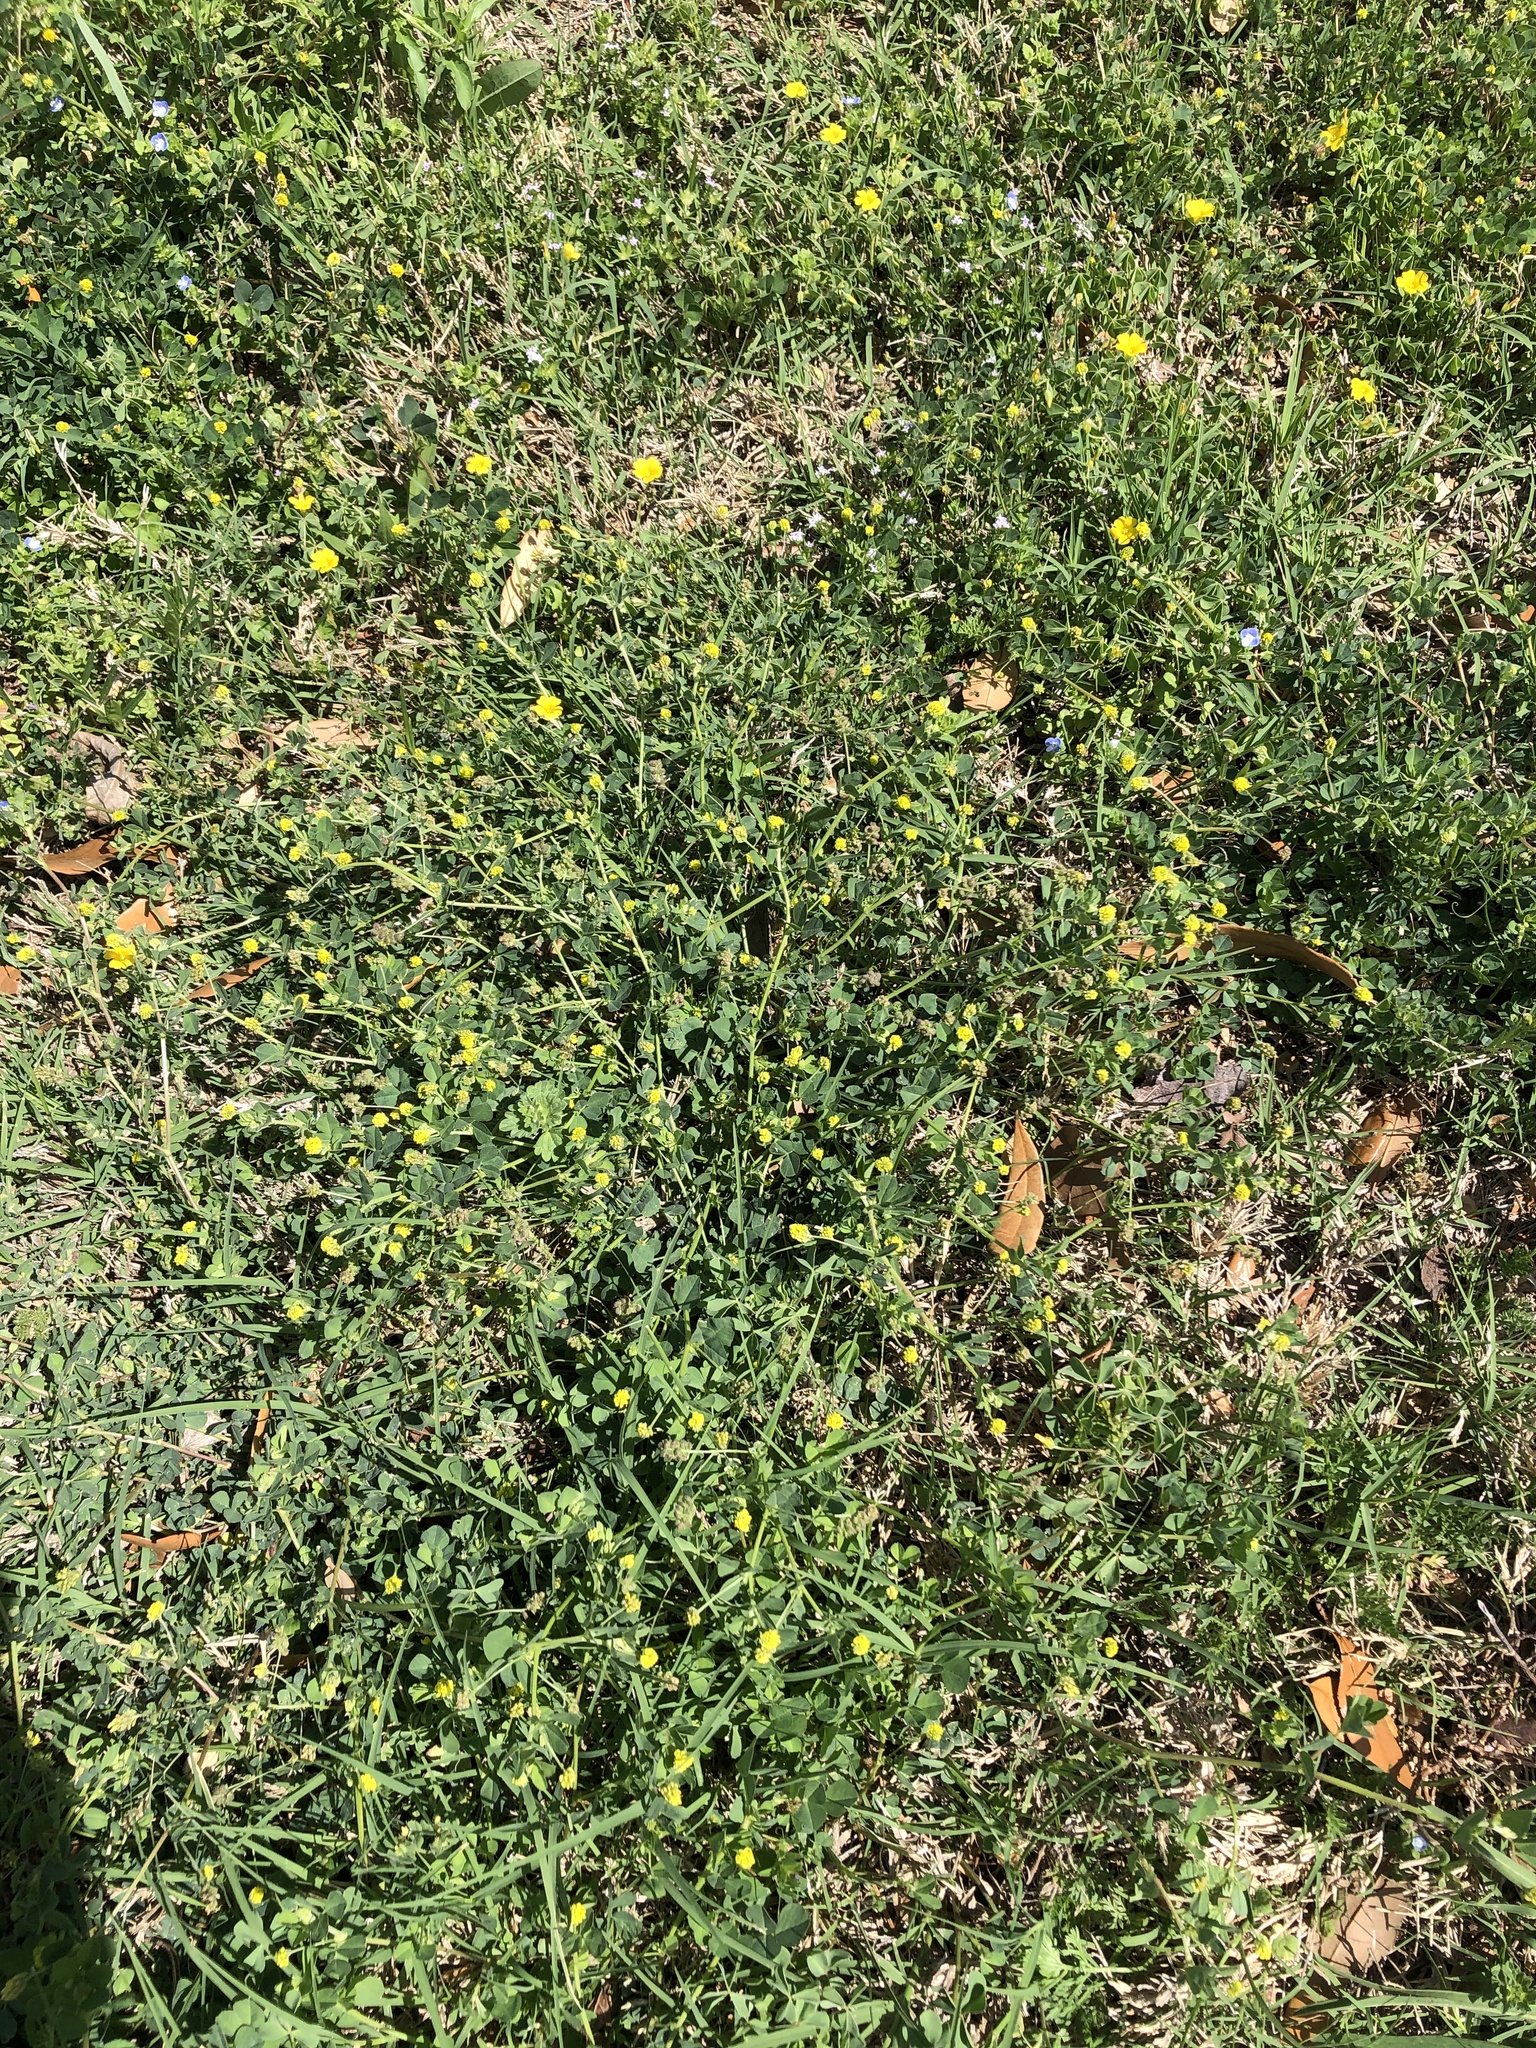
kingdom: Plantae
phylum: Tracheophyta
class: Magnoliopsida
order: Fabales
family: Fabaceae
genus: Medicago
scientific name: Medicago lupulina
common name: Black medick
